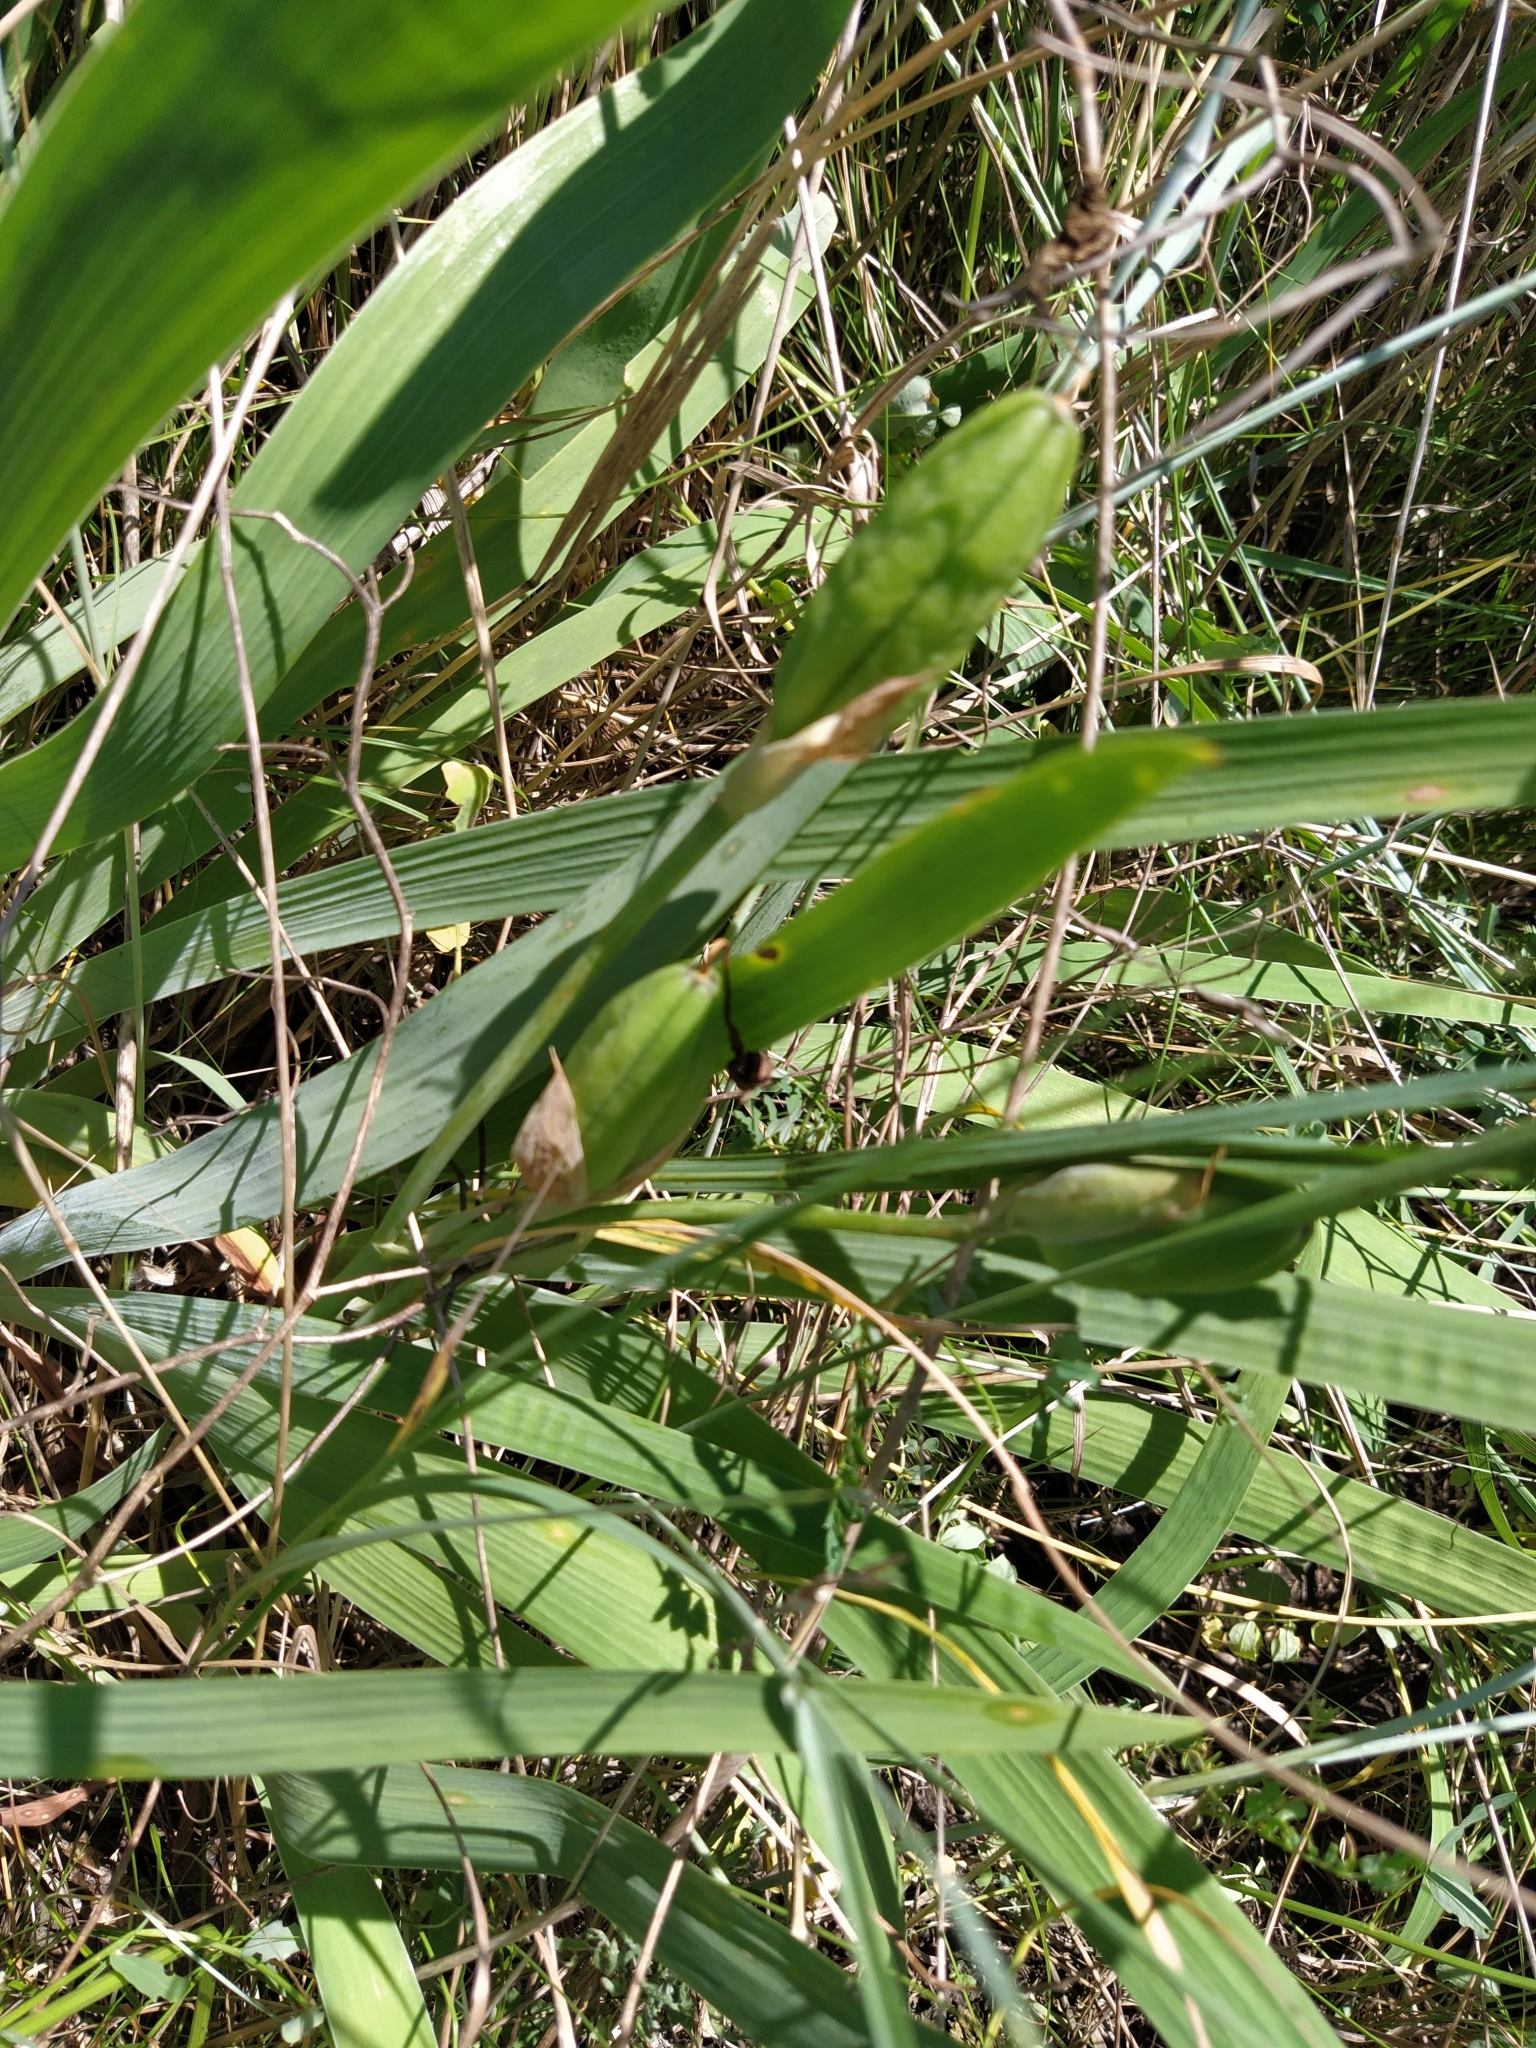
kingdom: Plantae
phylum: Tracheophyta
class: Liliopsida
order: Asparagales
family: Iridaceae
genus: Iris
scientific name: Iris aphylla
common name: Stool iris
